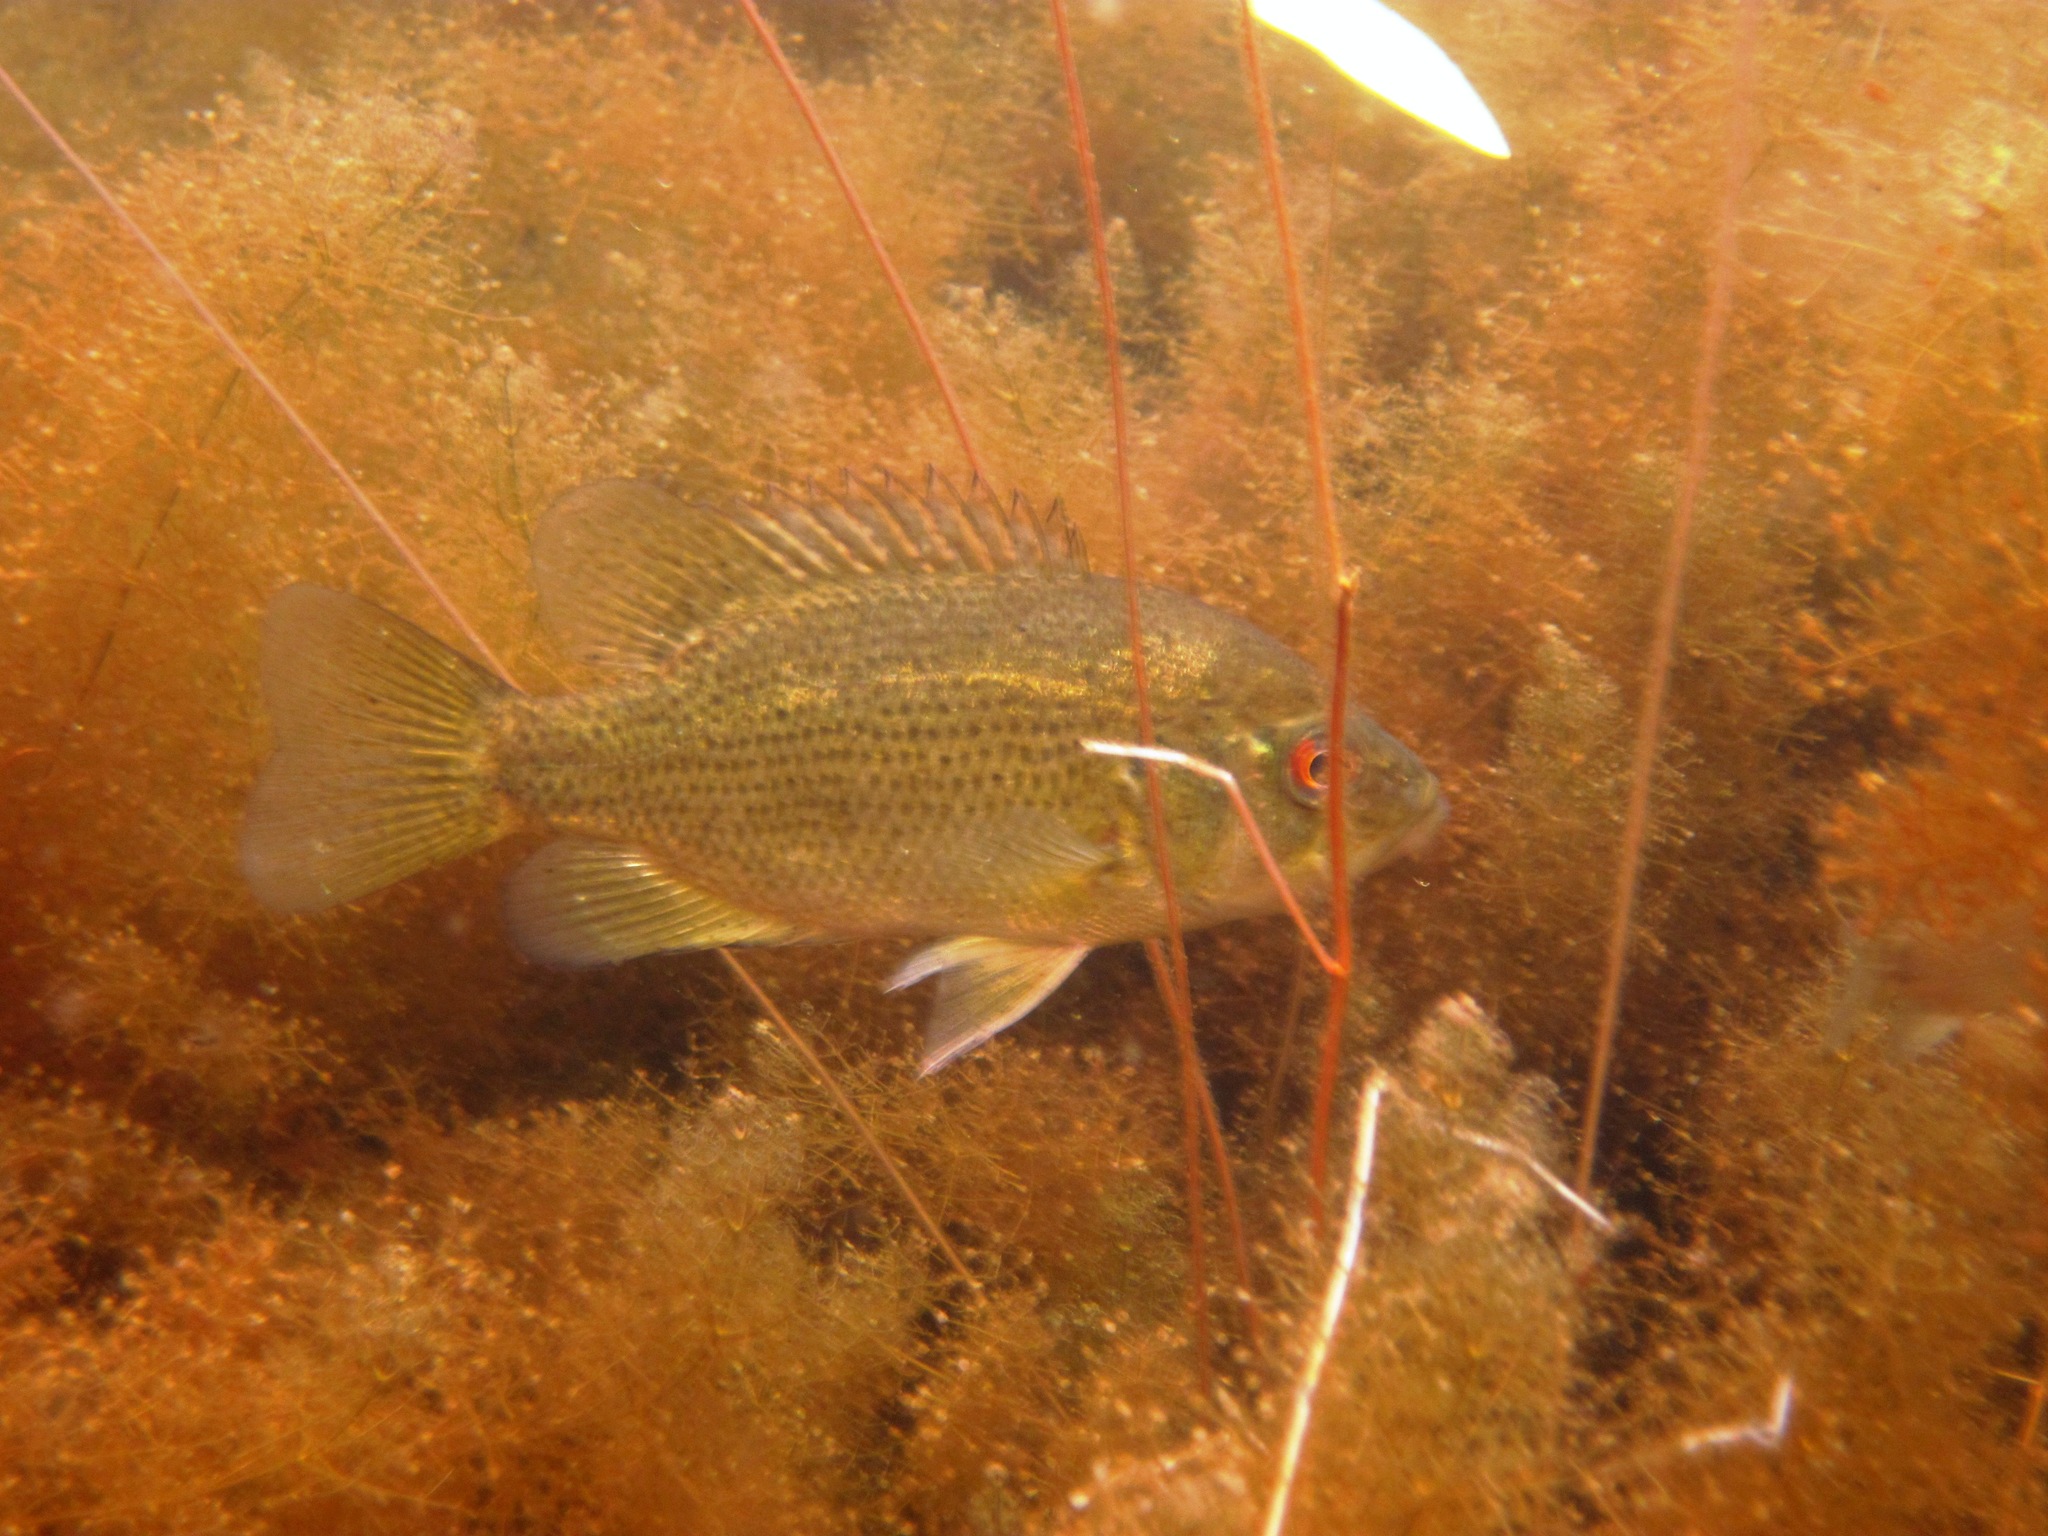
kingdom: Animalia
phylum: Chordata
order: Perciformes
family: Centrarchidae
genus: Ambloplites
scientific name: Ambloplites rupestris
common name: Rock bass
